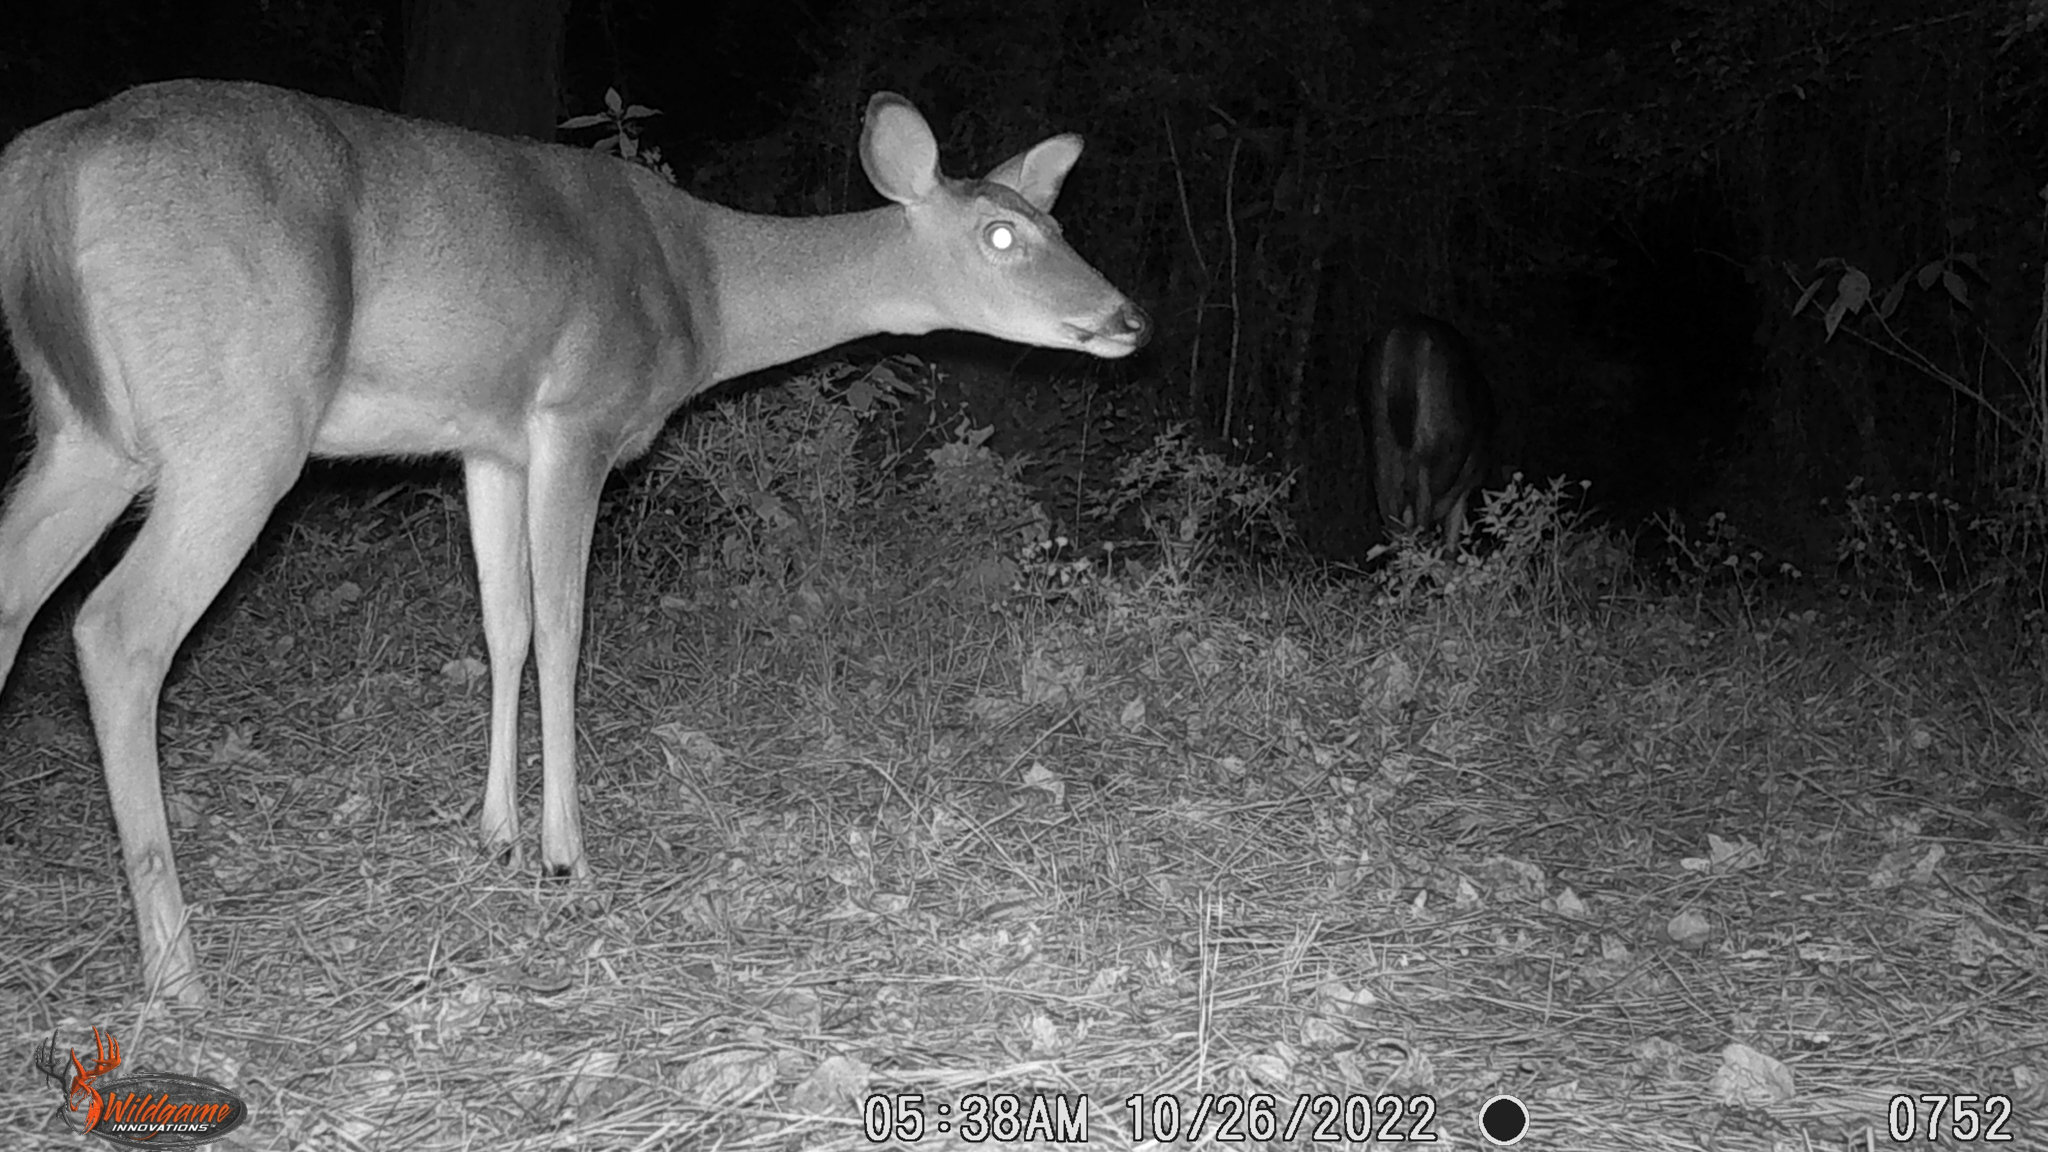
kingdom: Animalia
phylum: Chordata
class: Mammalia
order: Artiodactyla
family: Cervidae
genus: Odocoileus
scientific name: Odocoileus virginianus
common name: White-tailed deer
